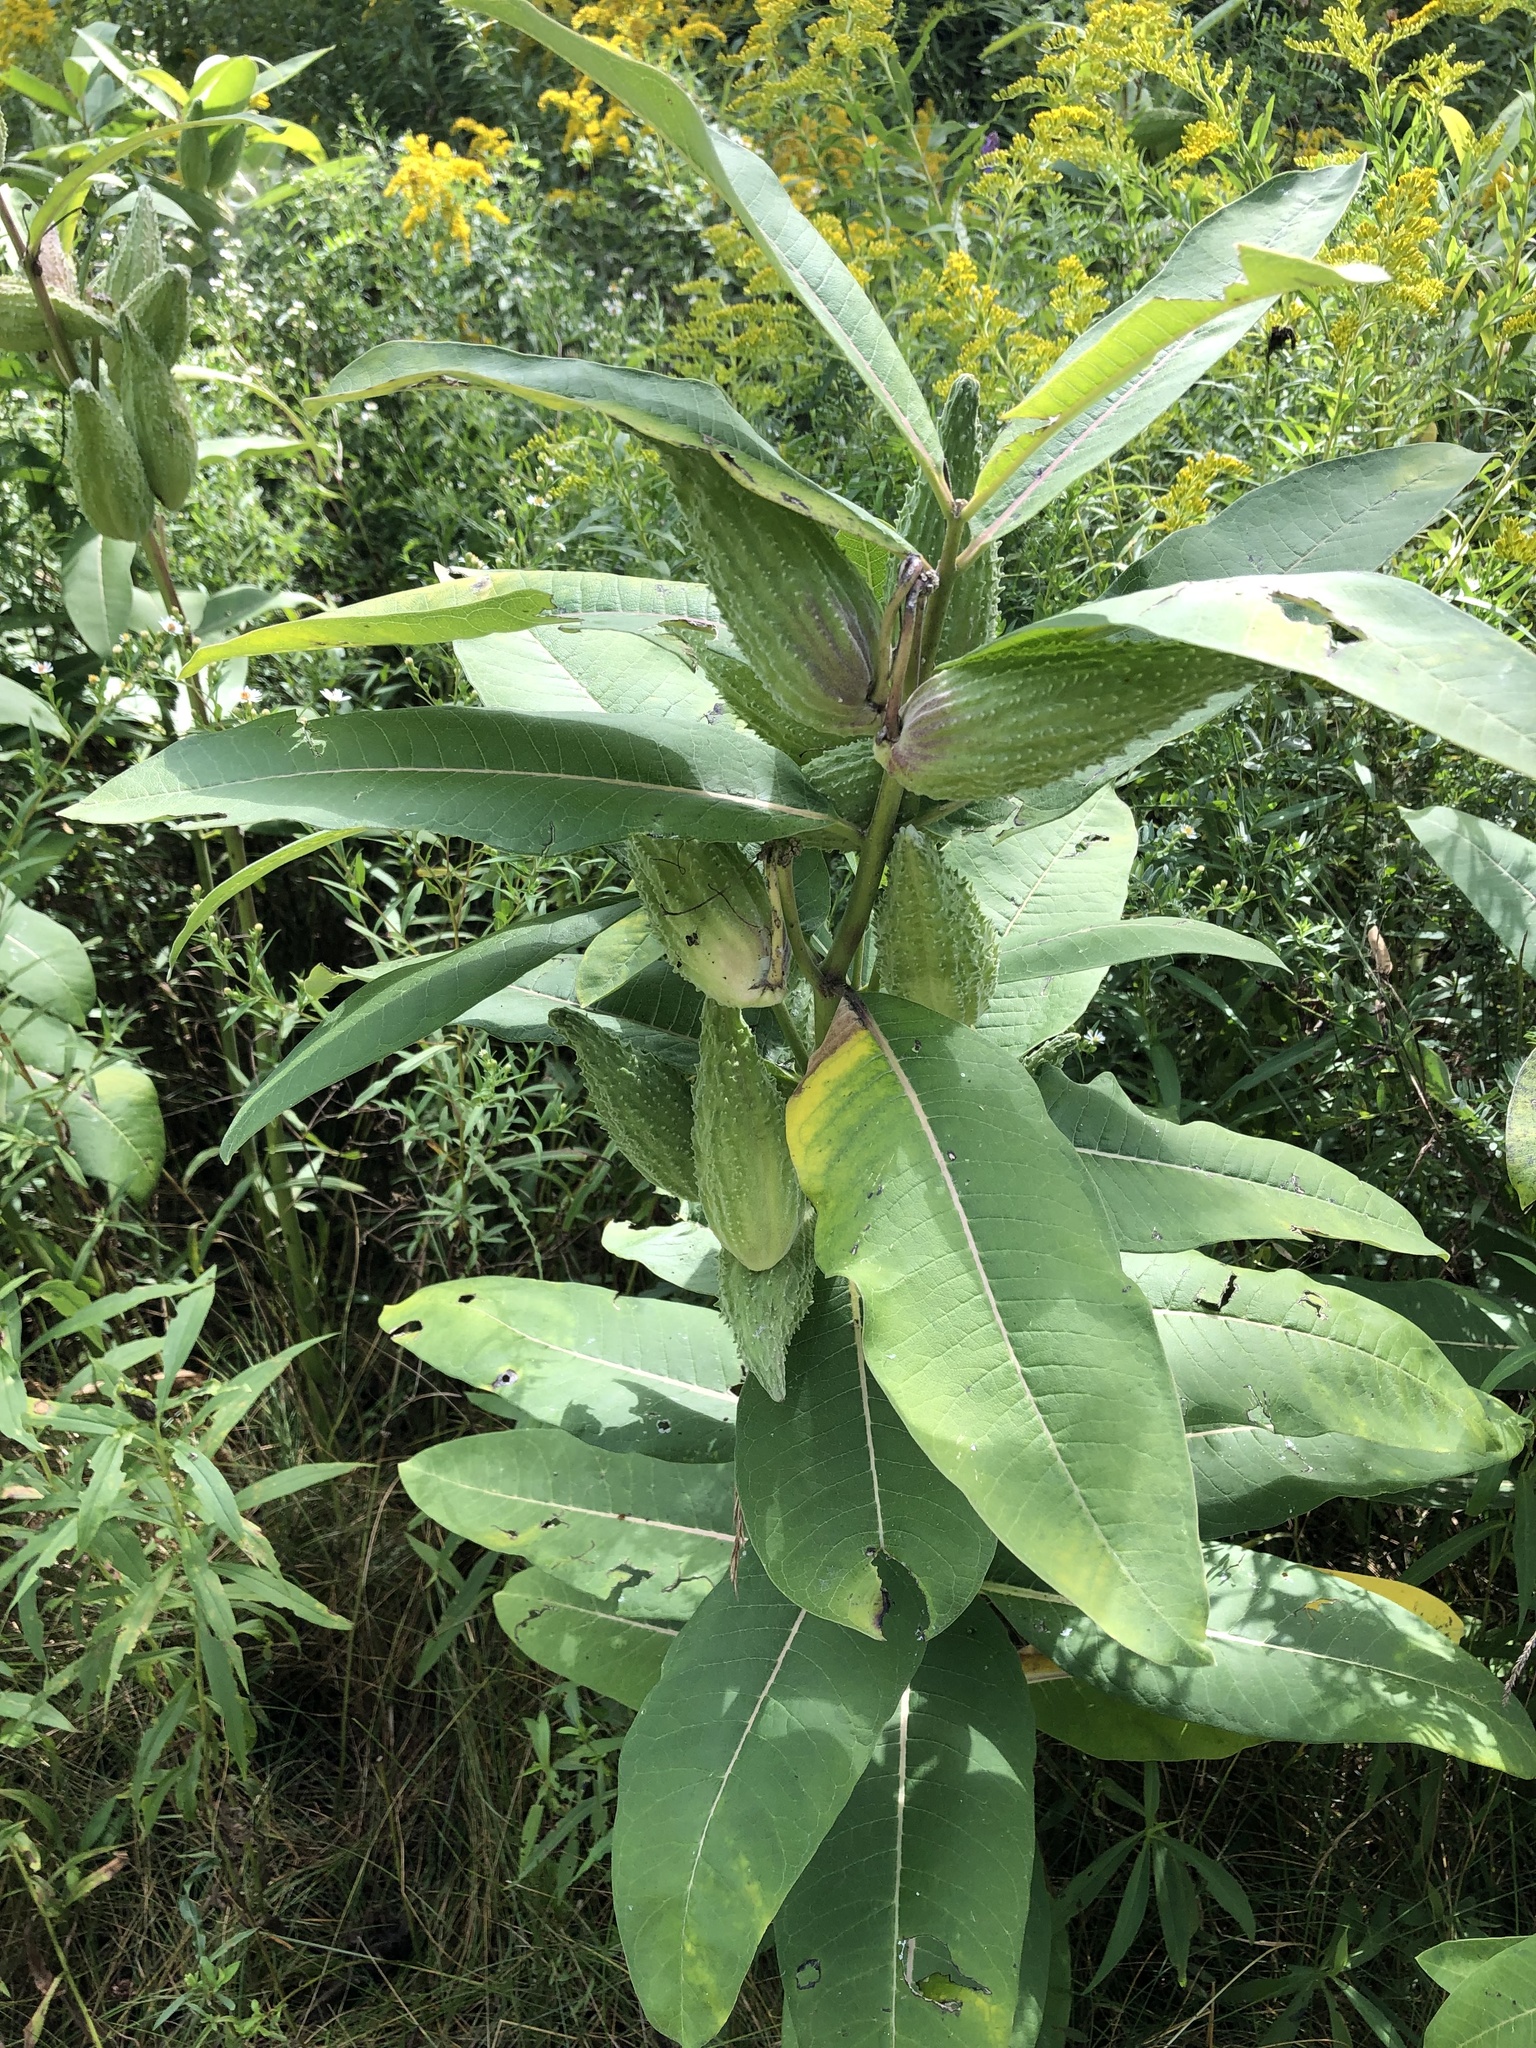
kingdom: Plantae
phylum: Tracheophyta
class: Magnoliopsida
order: Gentianales
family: Apocynaceae
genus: Asclepias
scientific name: Asclepias syriaca
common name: Common milkweed
